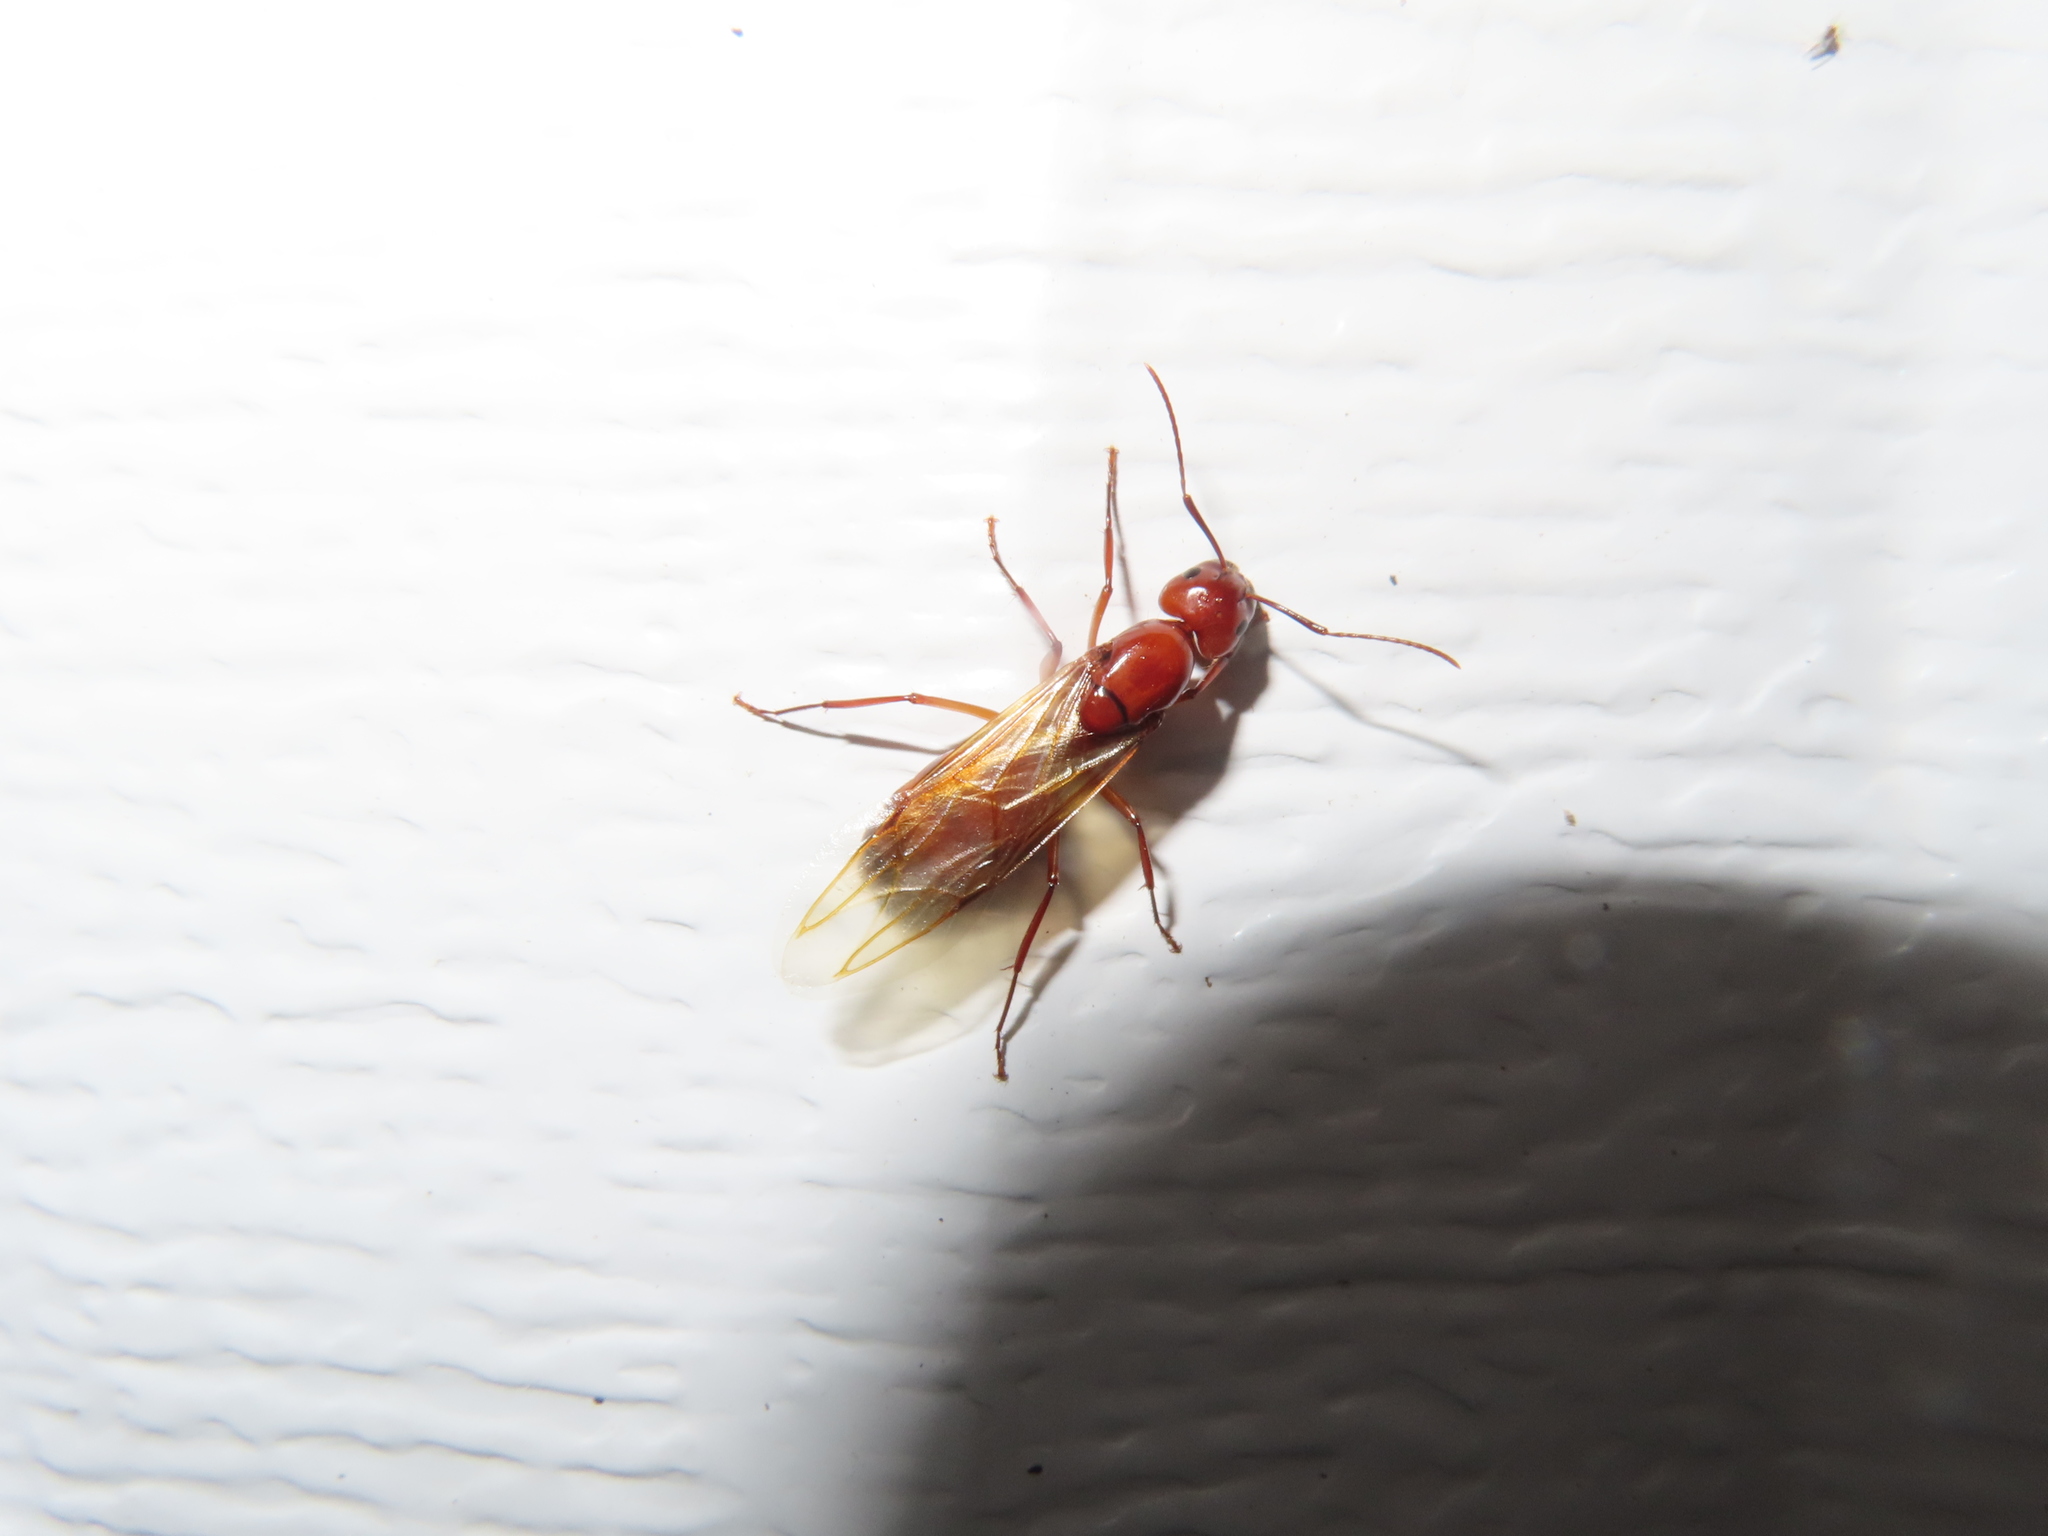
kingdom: Animalia
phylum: Arthropoda
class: Insecta
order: Hymenoptera
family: Formicidae
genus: Camponotus
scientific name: Camponotus castaneus
